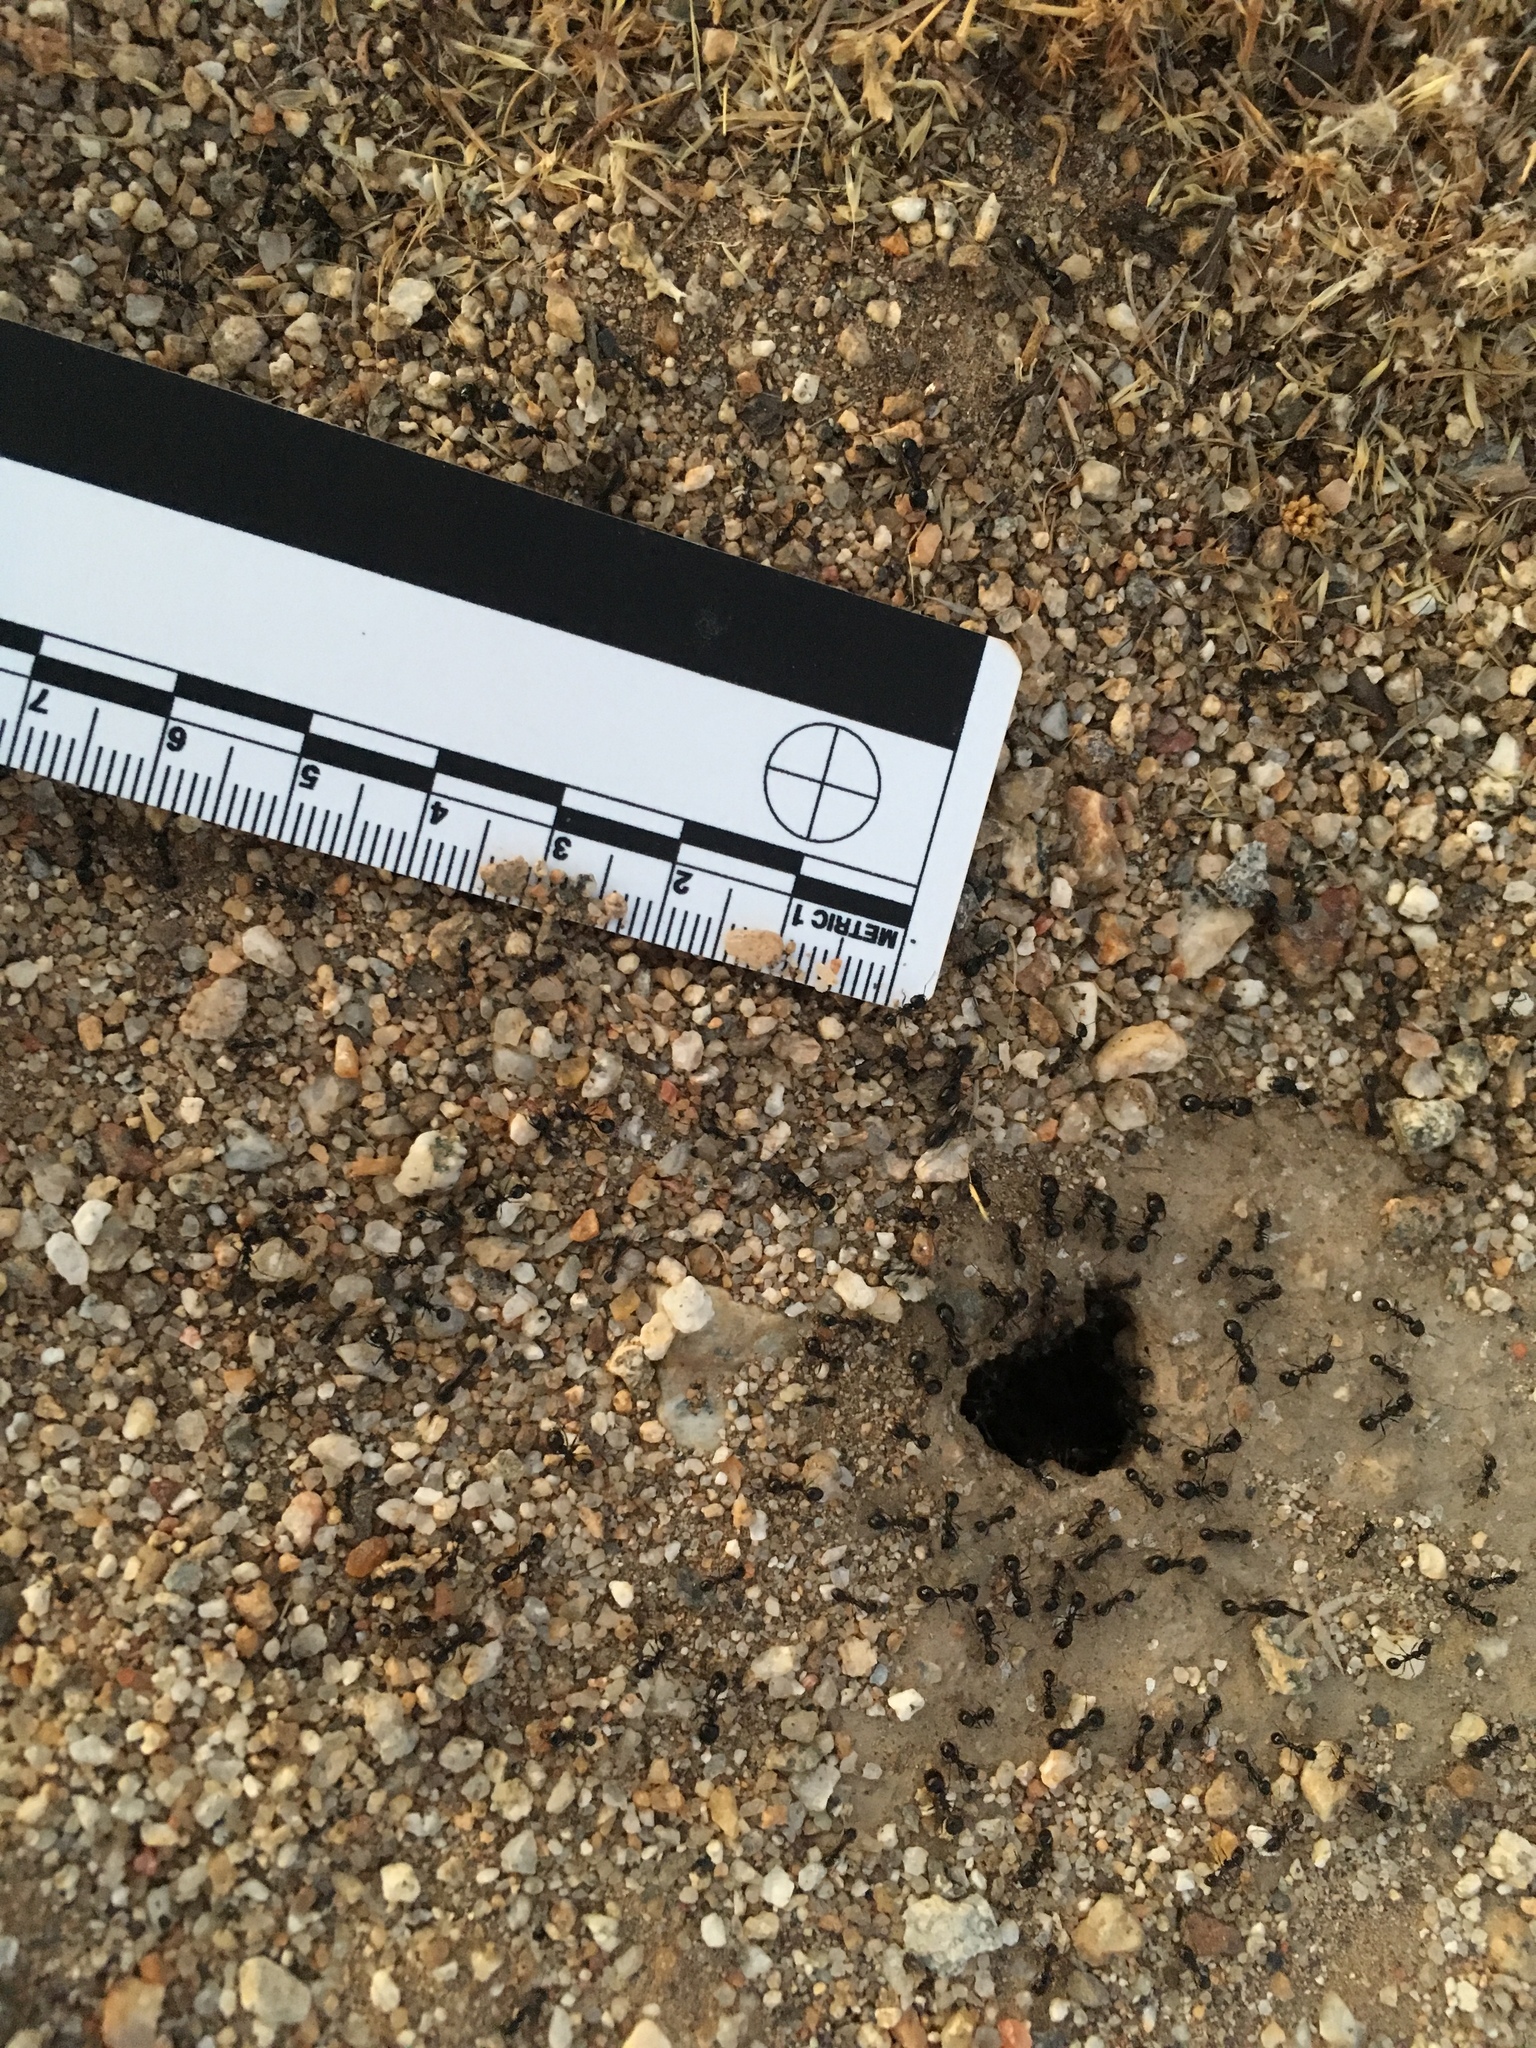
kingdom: Animalia
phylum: Arthropoda
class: Insecta
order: Hymenoptera
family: Formicidae
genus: Messor
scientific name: Messor pergandei
